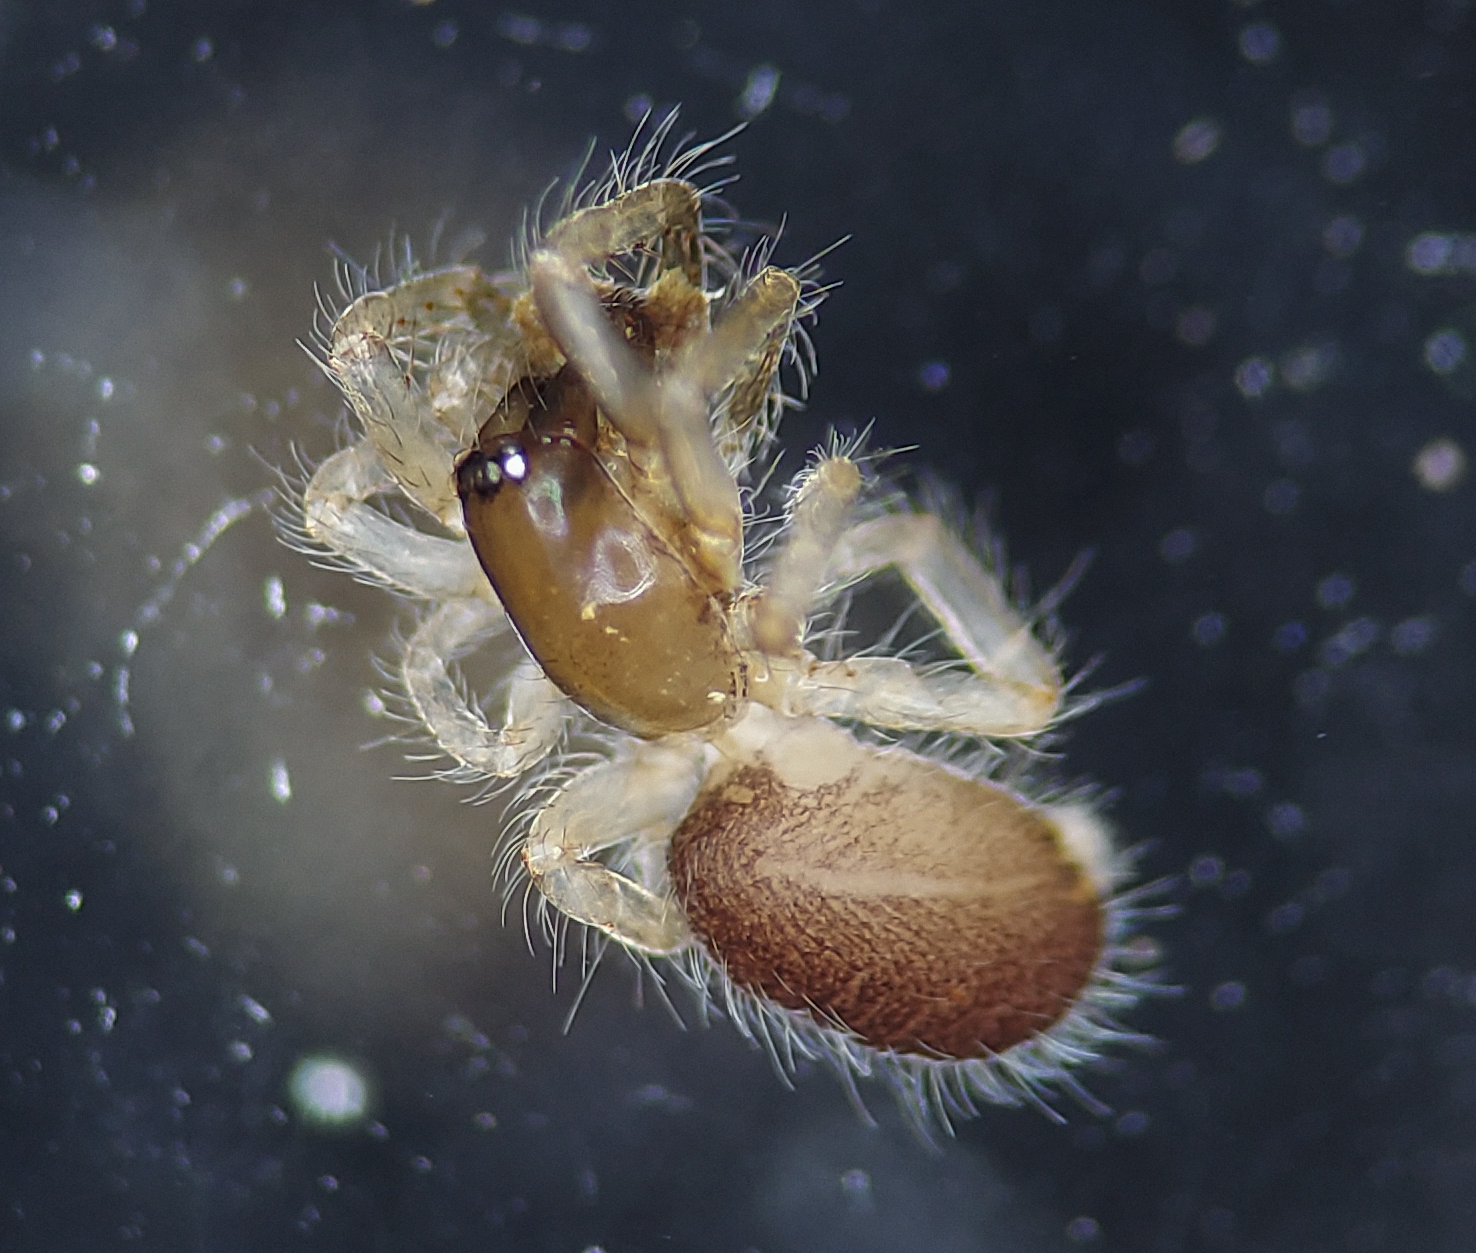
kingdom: Animalia
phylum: Arthropoda
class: Arachnida
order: Araneae
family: Segestriidae
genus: Ariadna
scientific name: Ariadna bicolor
